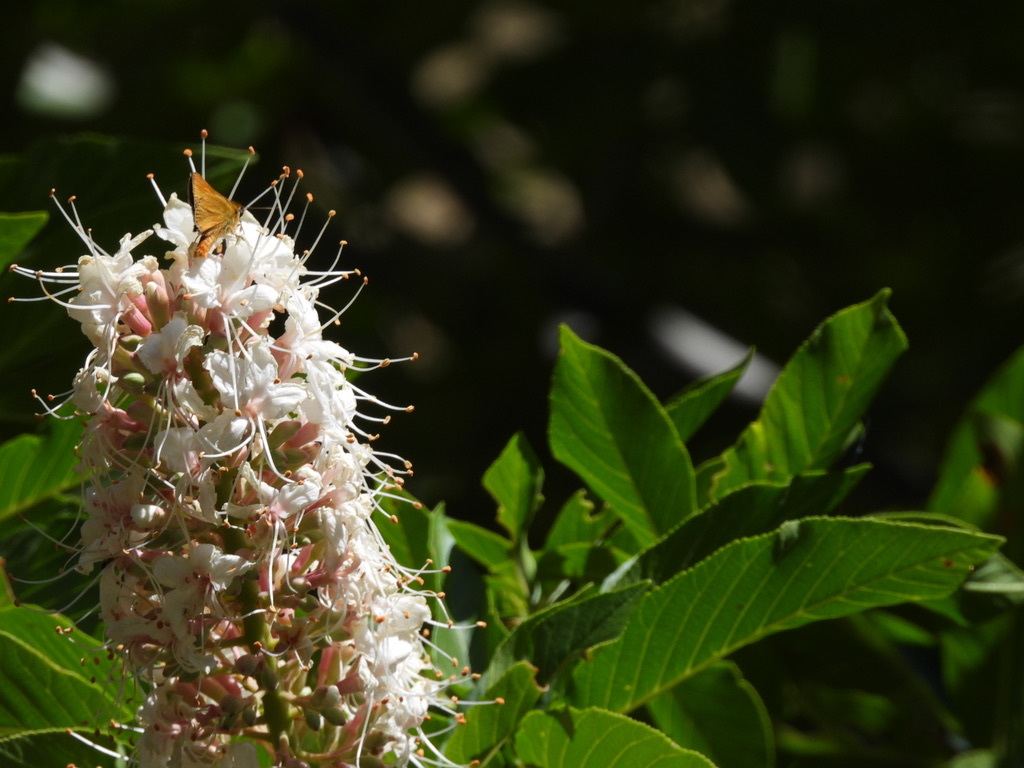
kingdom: Animalia
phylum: Arthropoda
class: Insecta
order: Lepidoptera
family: Hesperiidae
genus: Ochlodes
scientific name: Ochlodes agricola
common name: Rural skipper
